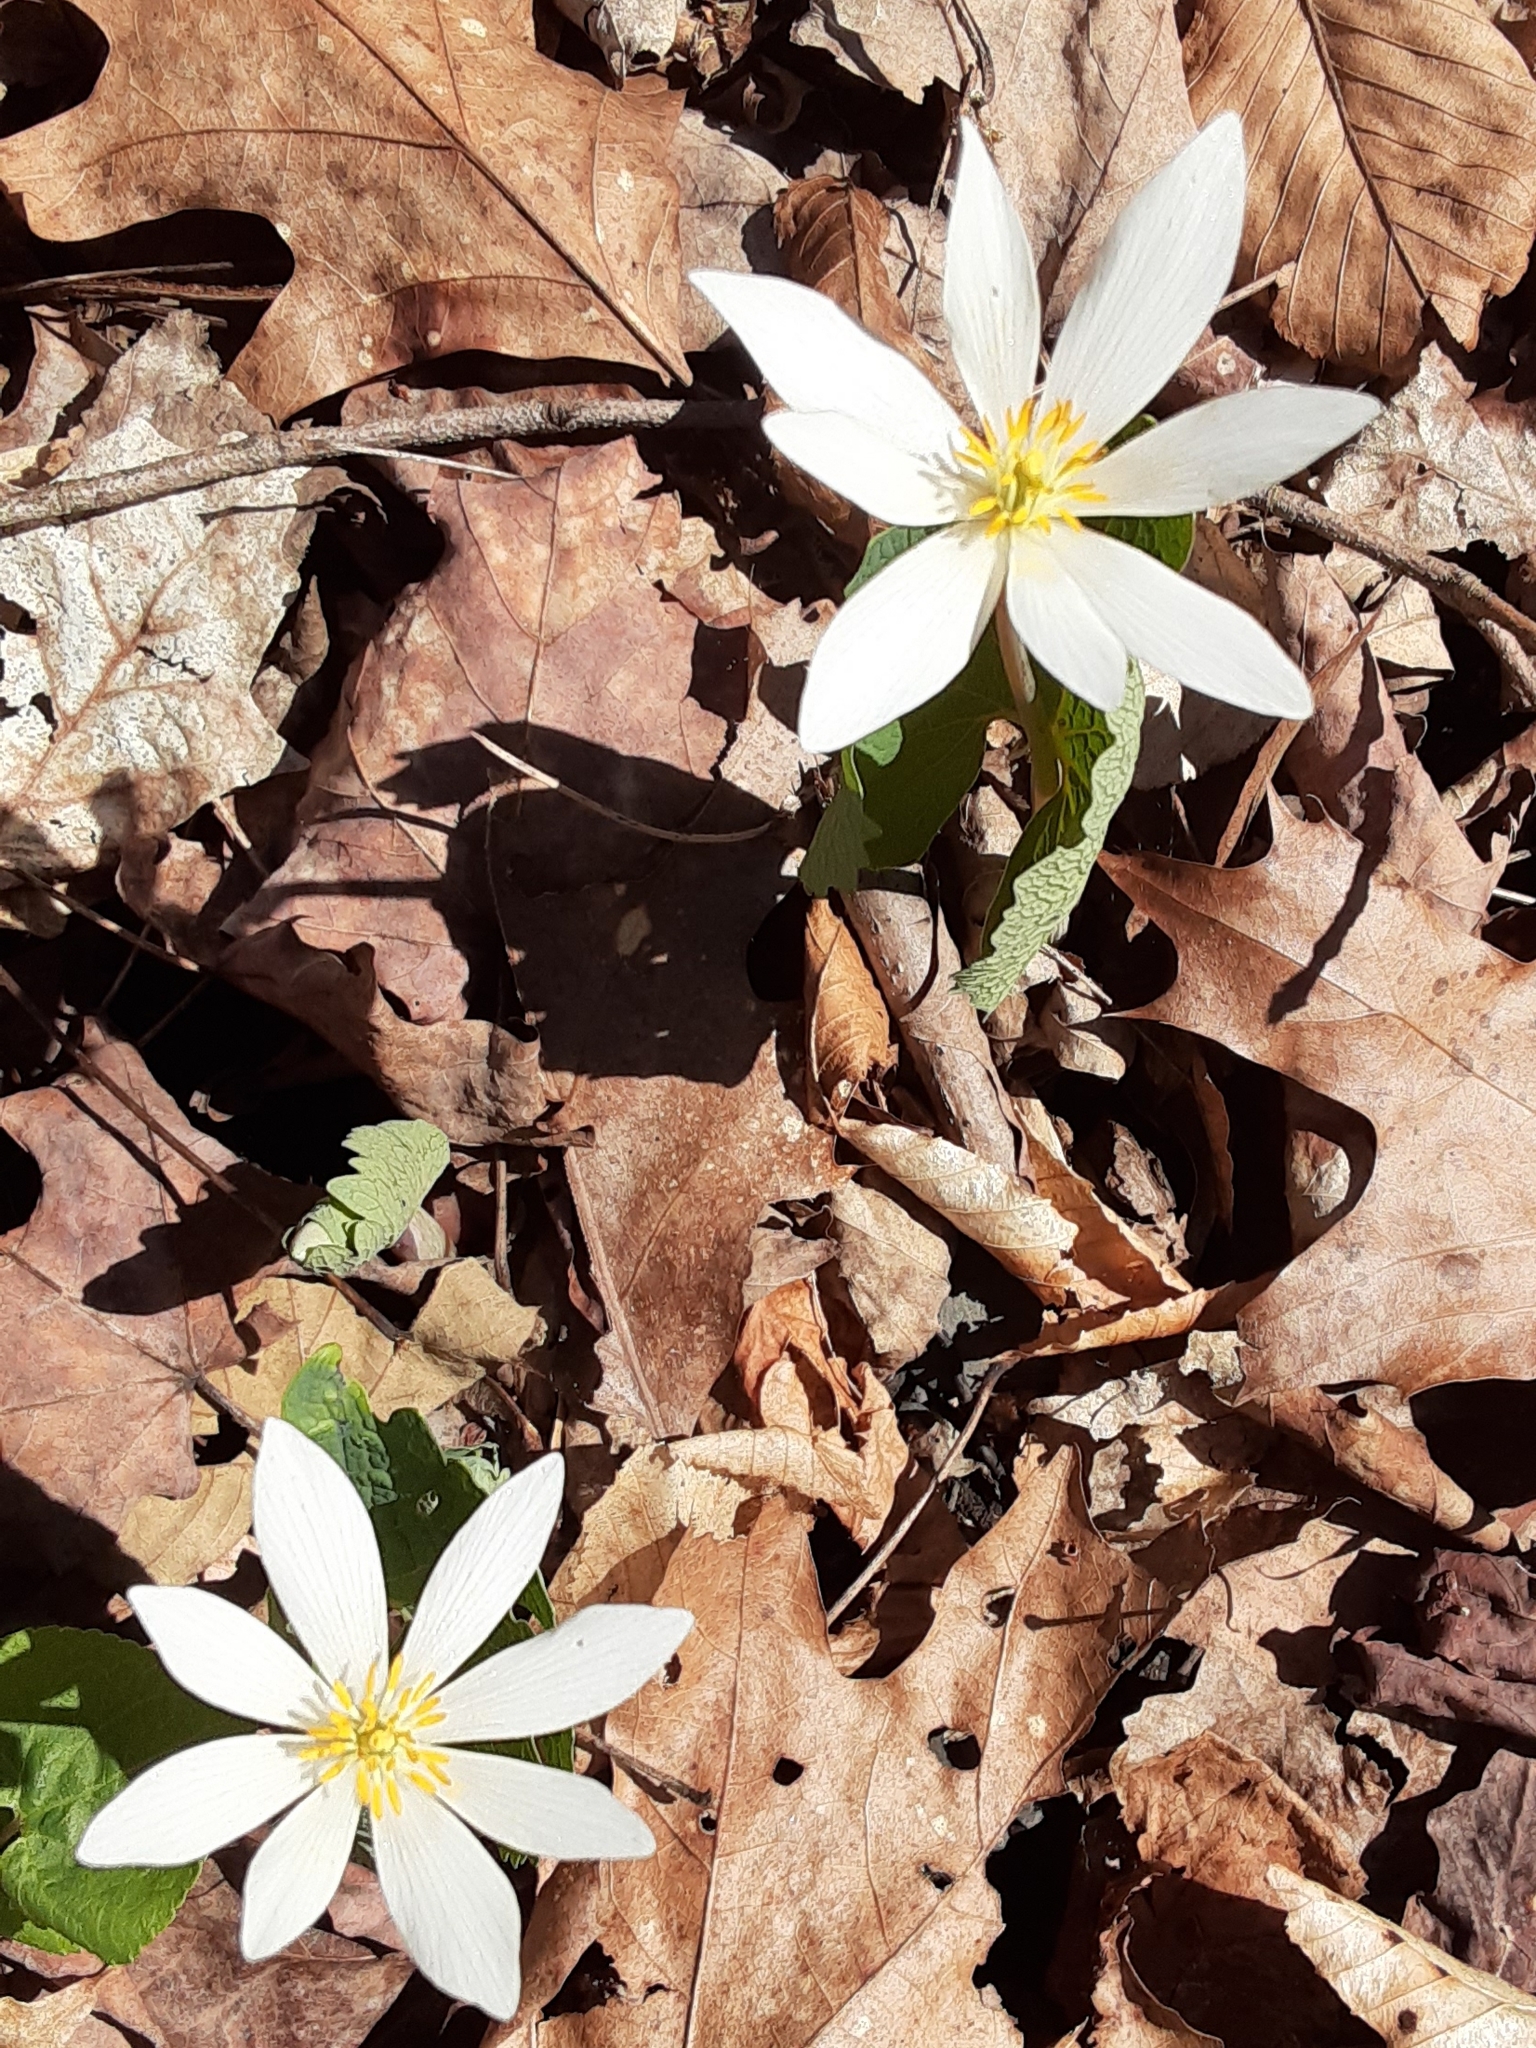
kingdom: Plantae
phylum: Tracheophyta
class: Magnoliopsida
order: Ranunculales
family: Papaveraceae
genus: Sanguinaria
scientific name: Sanguinaria canadensis
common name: Bloodroot
